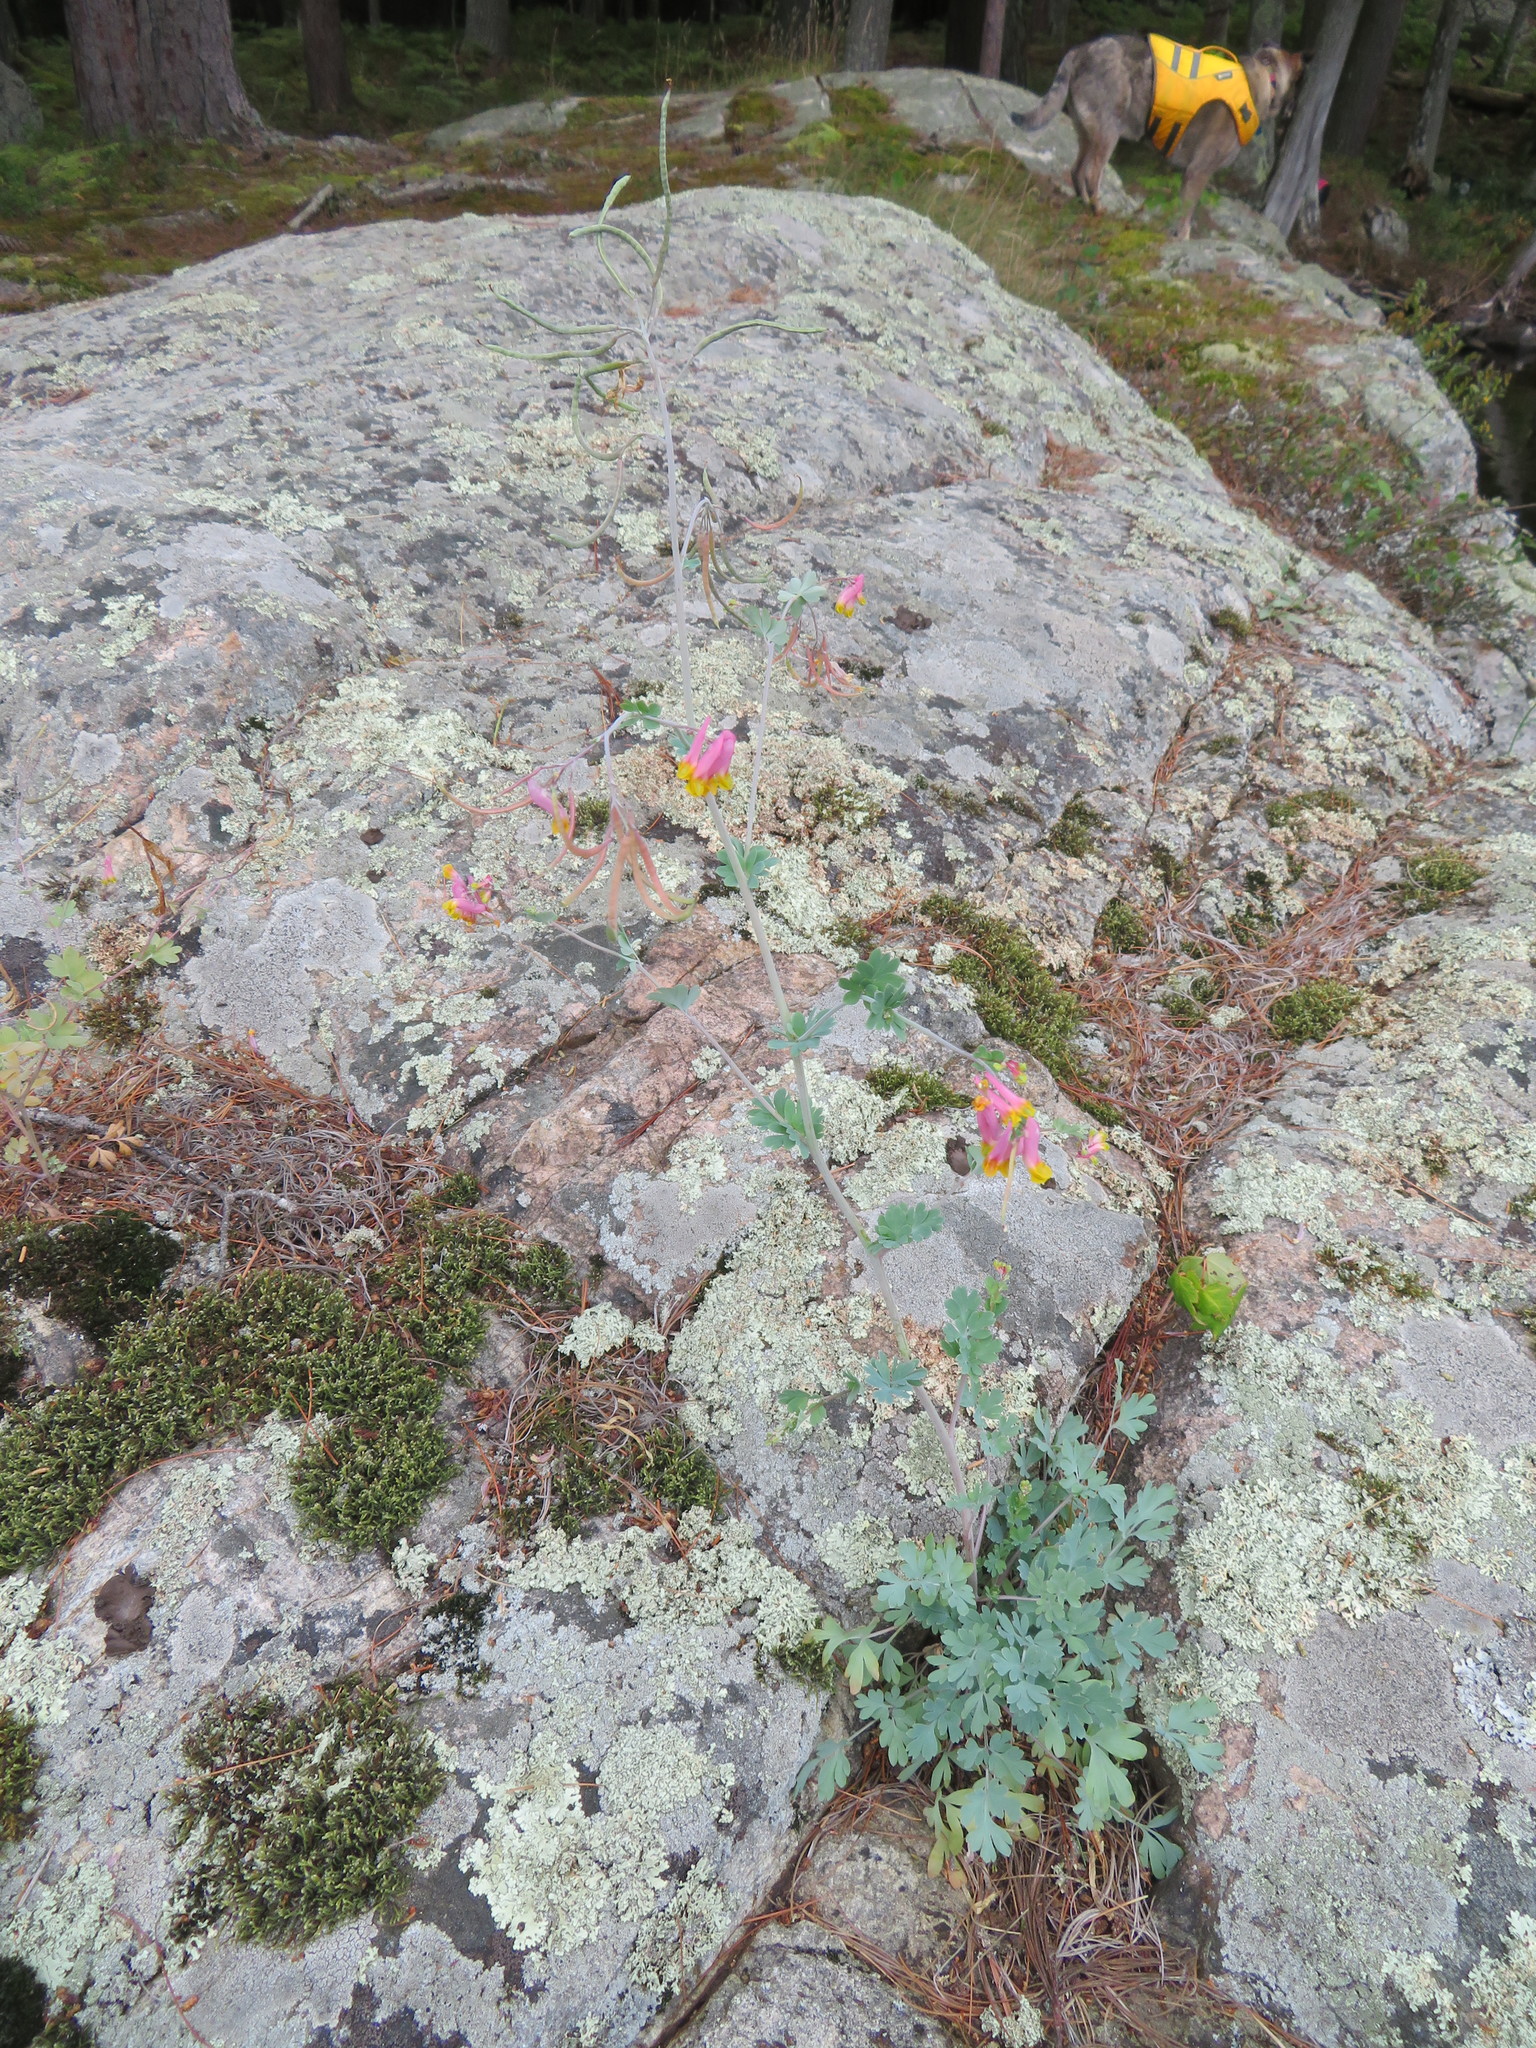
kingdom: Plantae
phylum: Tracheophyta
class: Magnoliopsida
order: Ranunculales
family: Papaveraceae
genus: Capnoides
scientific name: Capnoides sempervirens
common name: Rock harlequin
